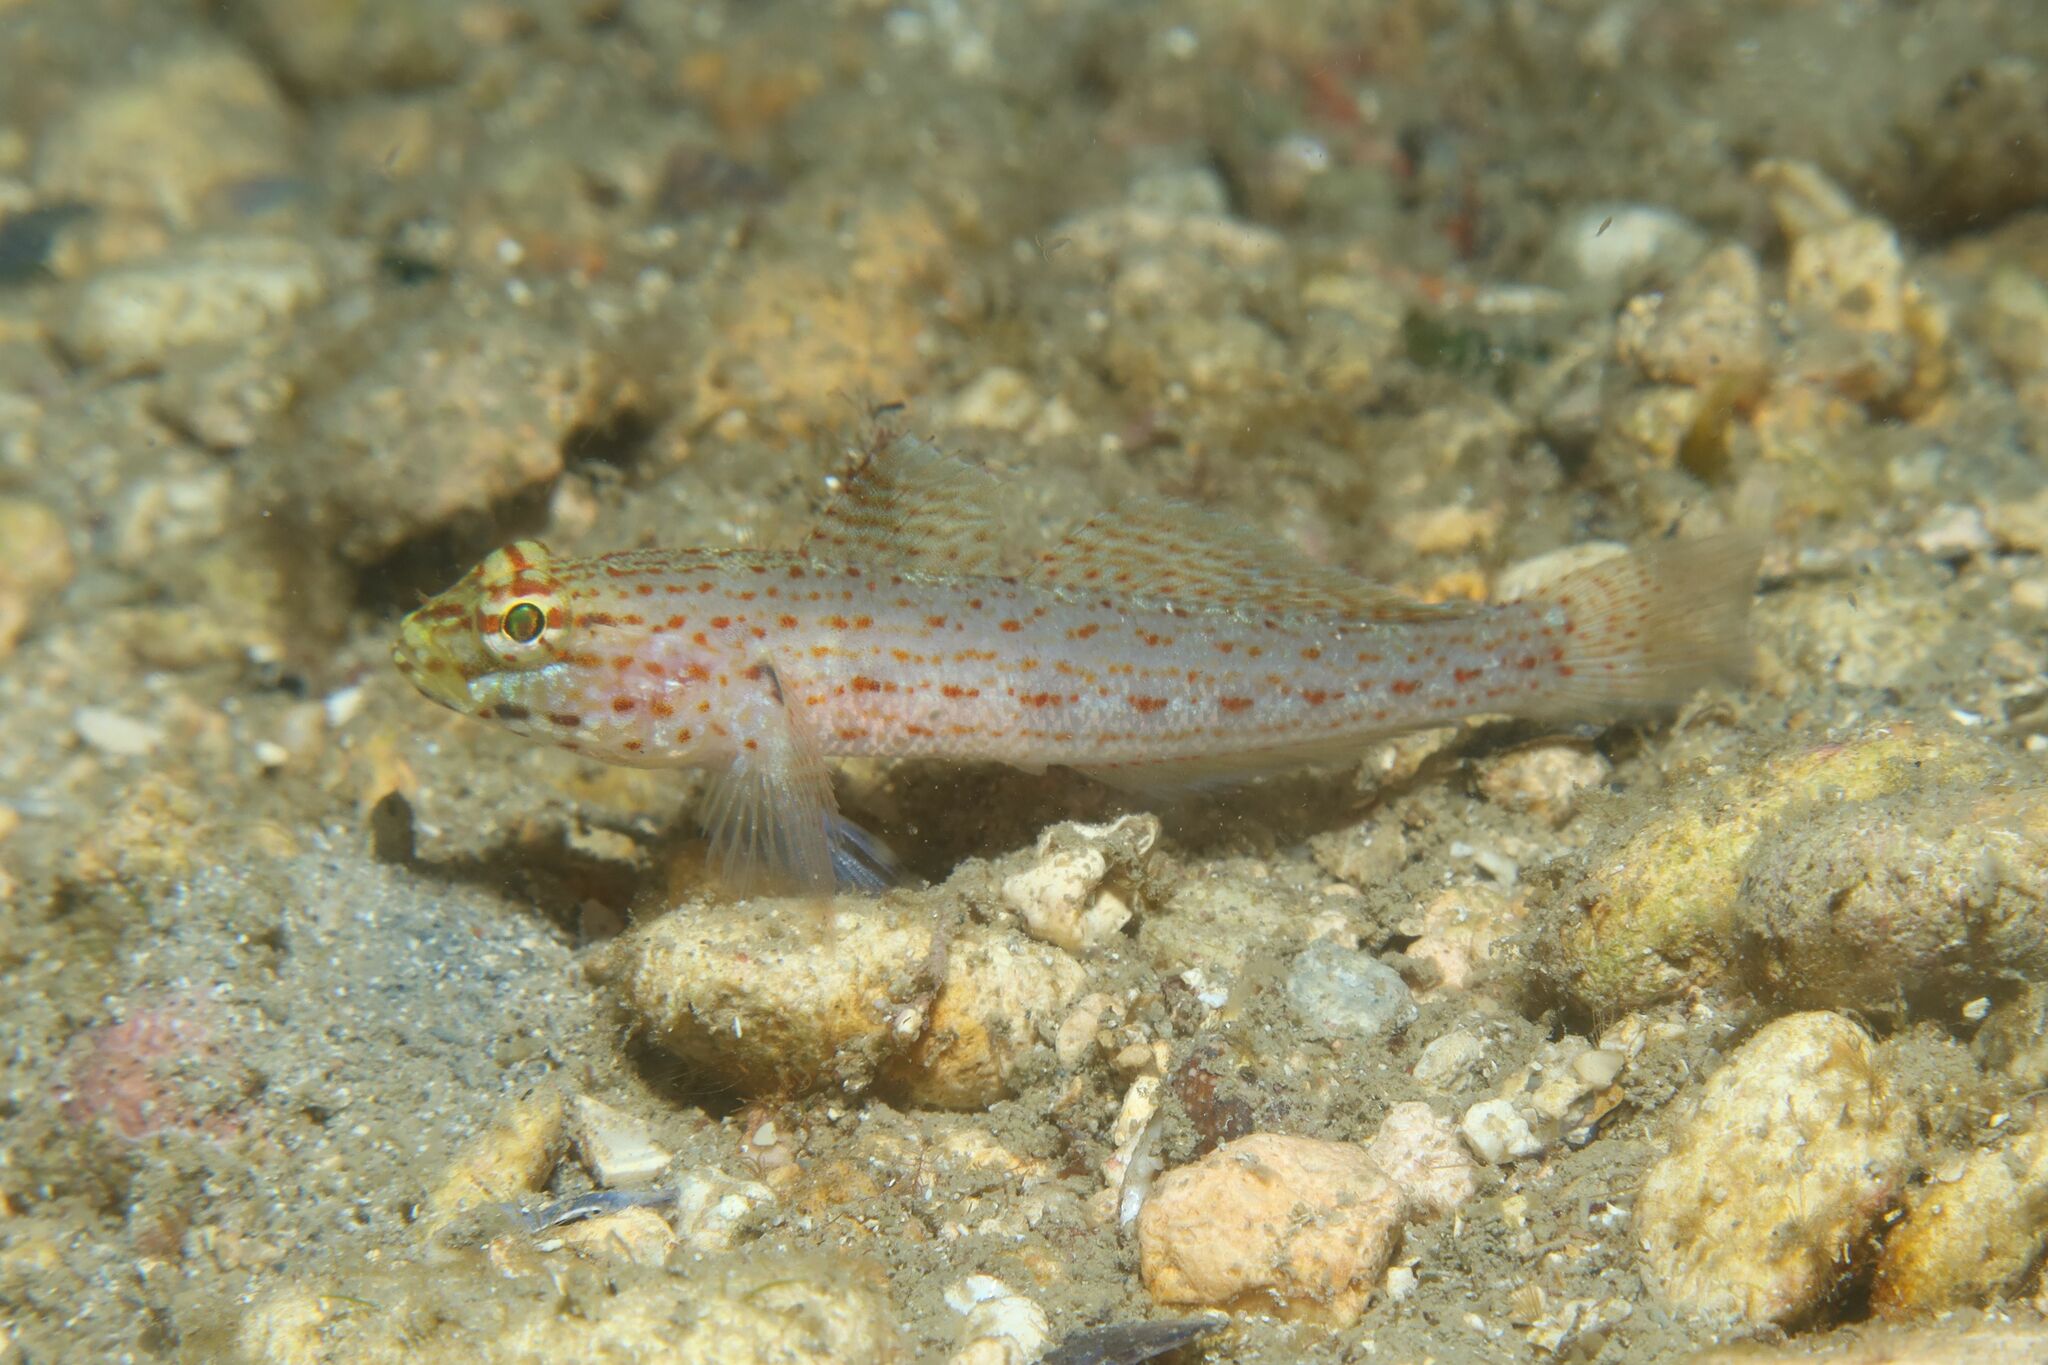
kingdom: Animalia
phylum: Chordata
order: Perciformes
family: Gobiidae
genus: Gobius
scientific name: Gobius xanthocephalus
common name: Golden goby
